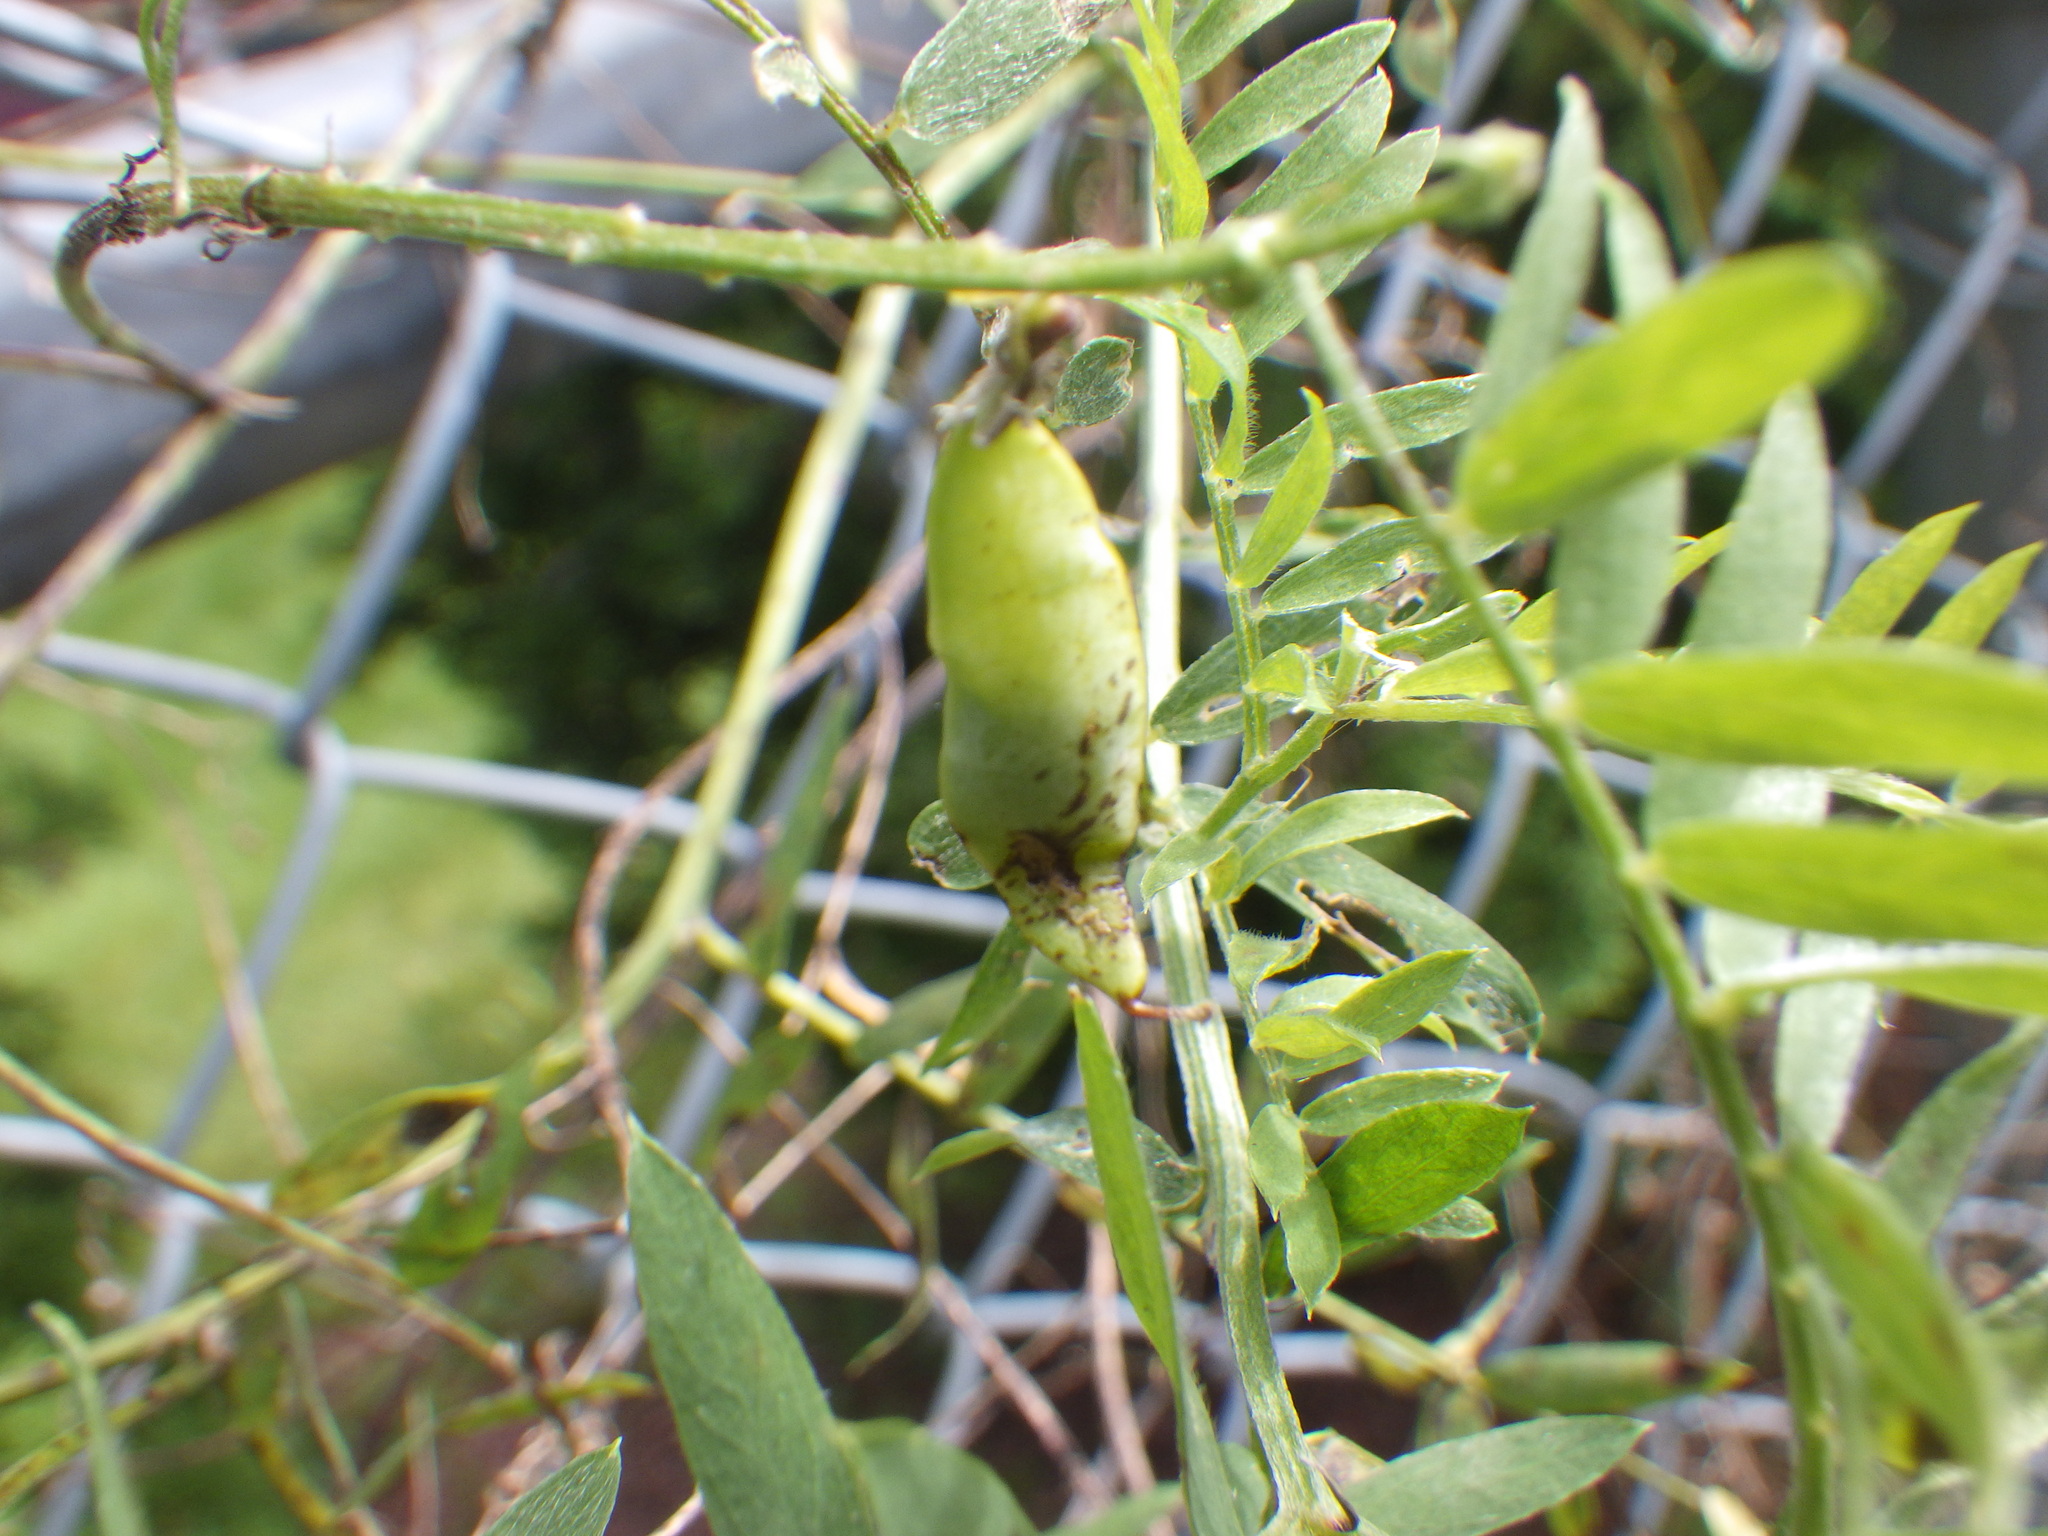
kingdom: Plantae
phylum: Tracheophyta
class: Magnoliopsida
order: Fabales
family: Fabaceae
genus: Vicia
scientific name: Vicia cracca
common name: Bird vetch
